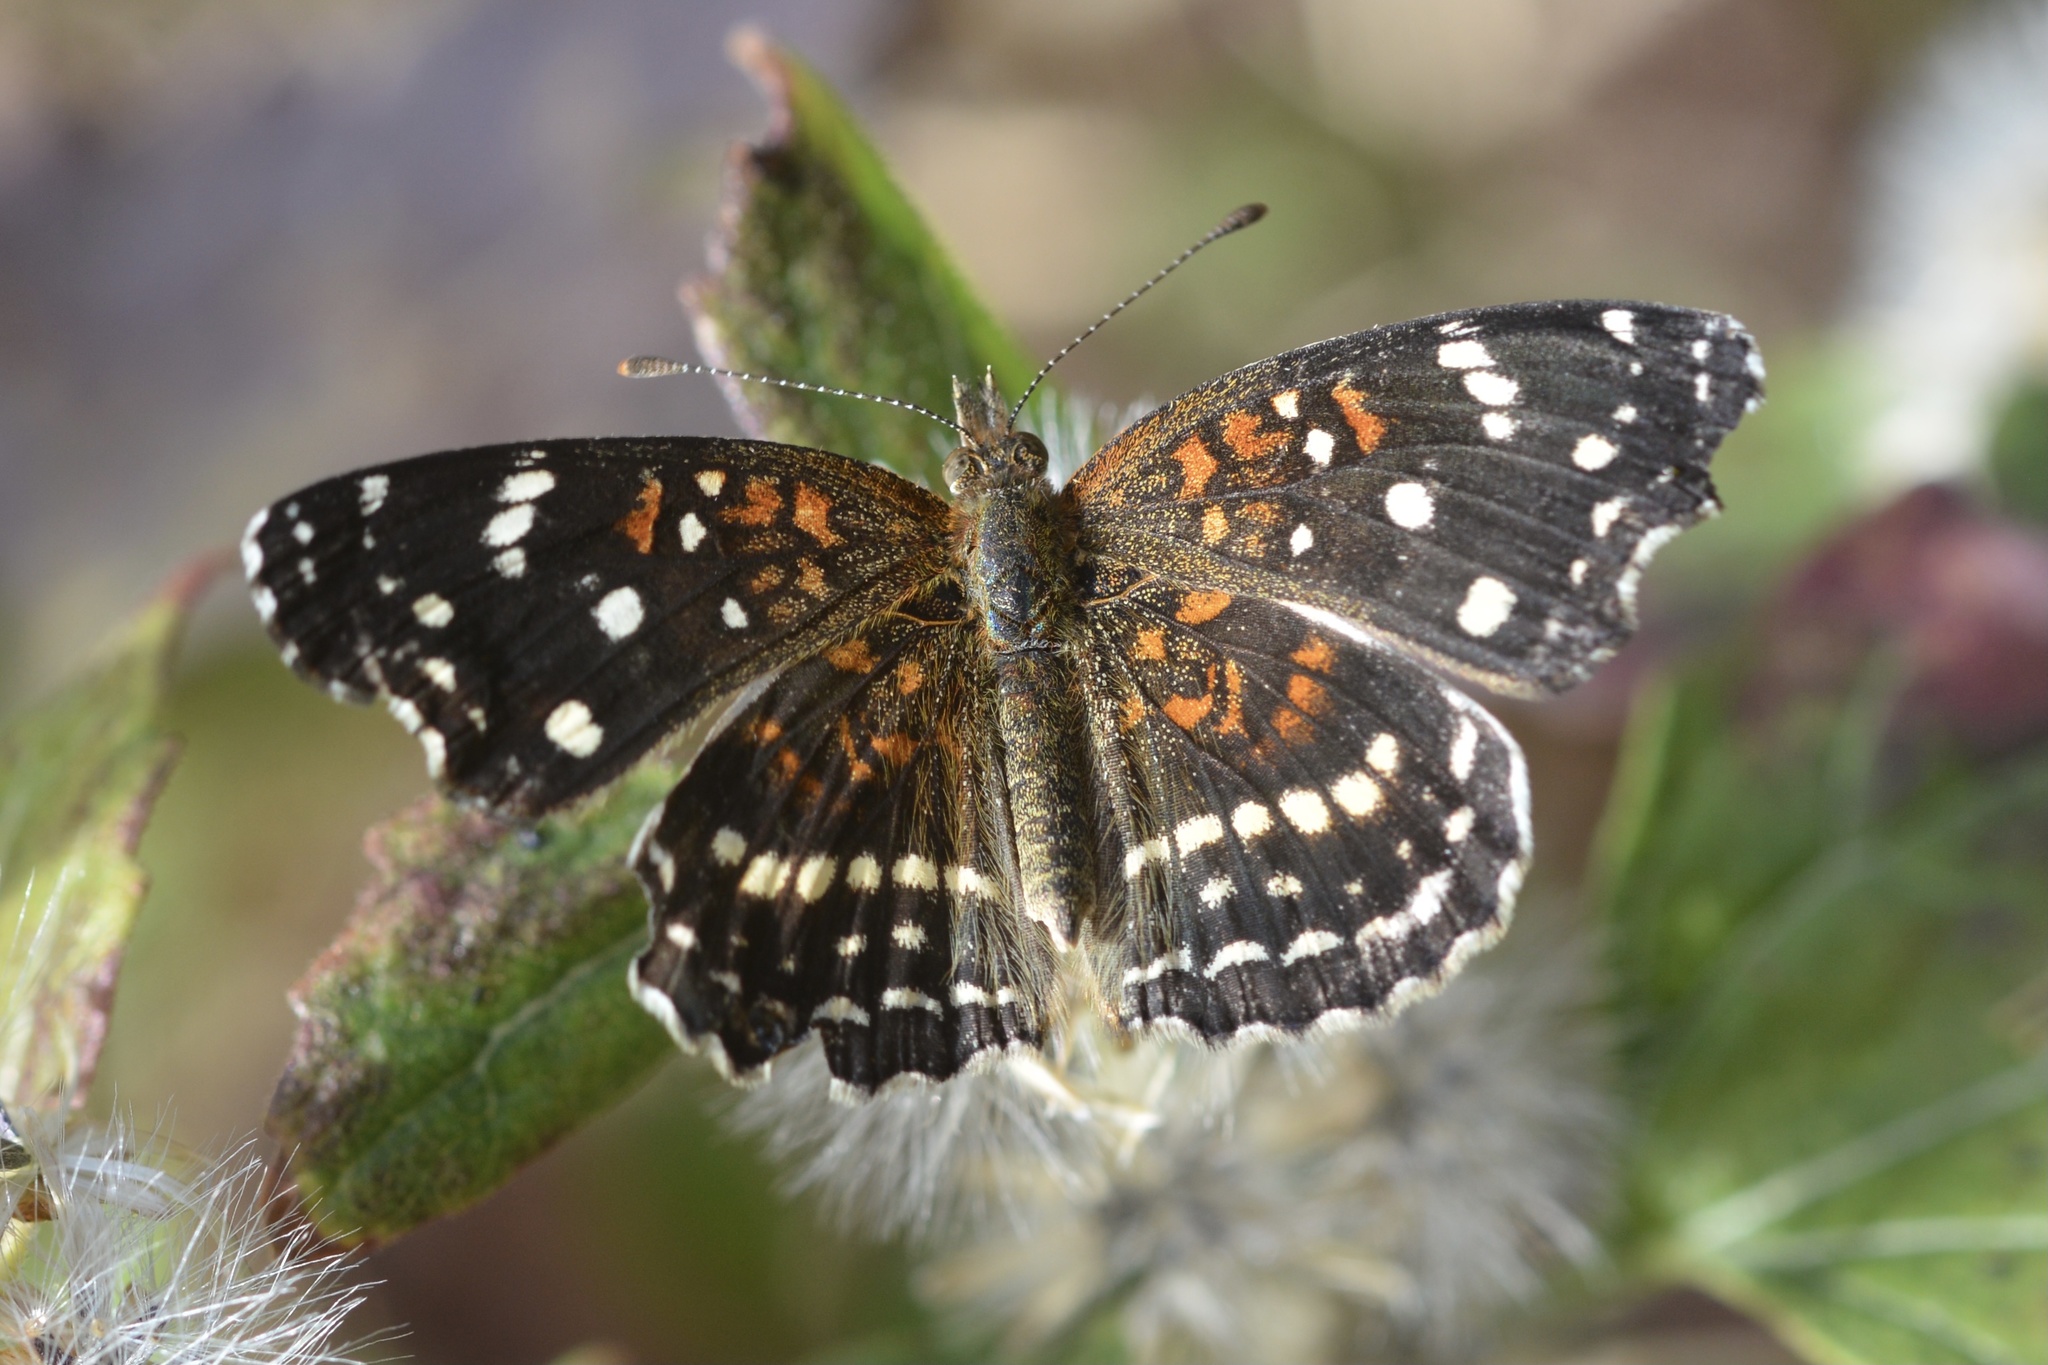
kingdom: Animalia
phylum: Arthropoda
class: Insecta
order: Lepidoptera
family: Nymphalidae
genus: Anthanassa
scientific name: Anthanassa texana
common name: Texan crescent
